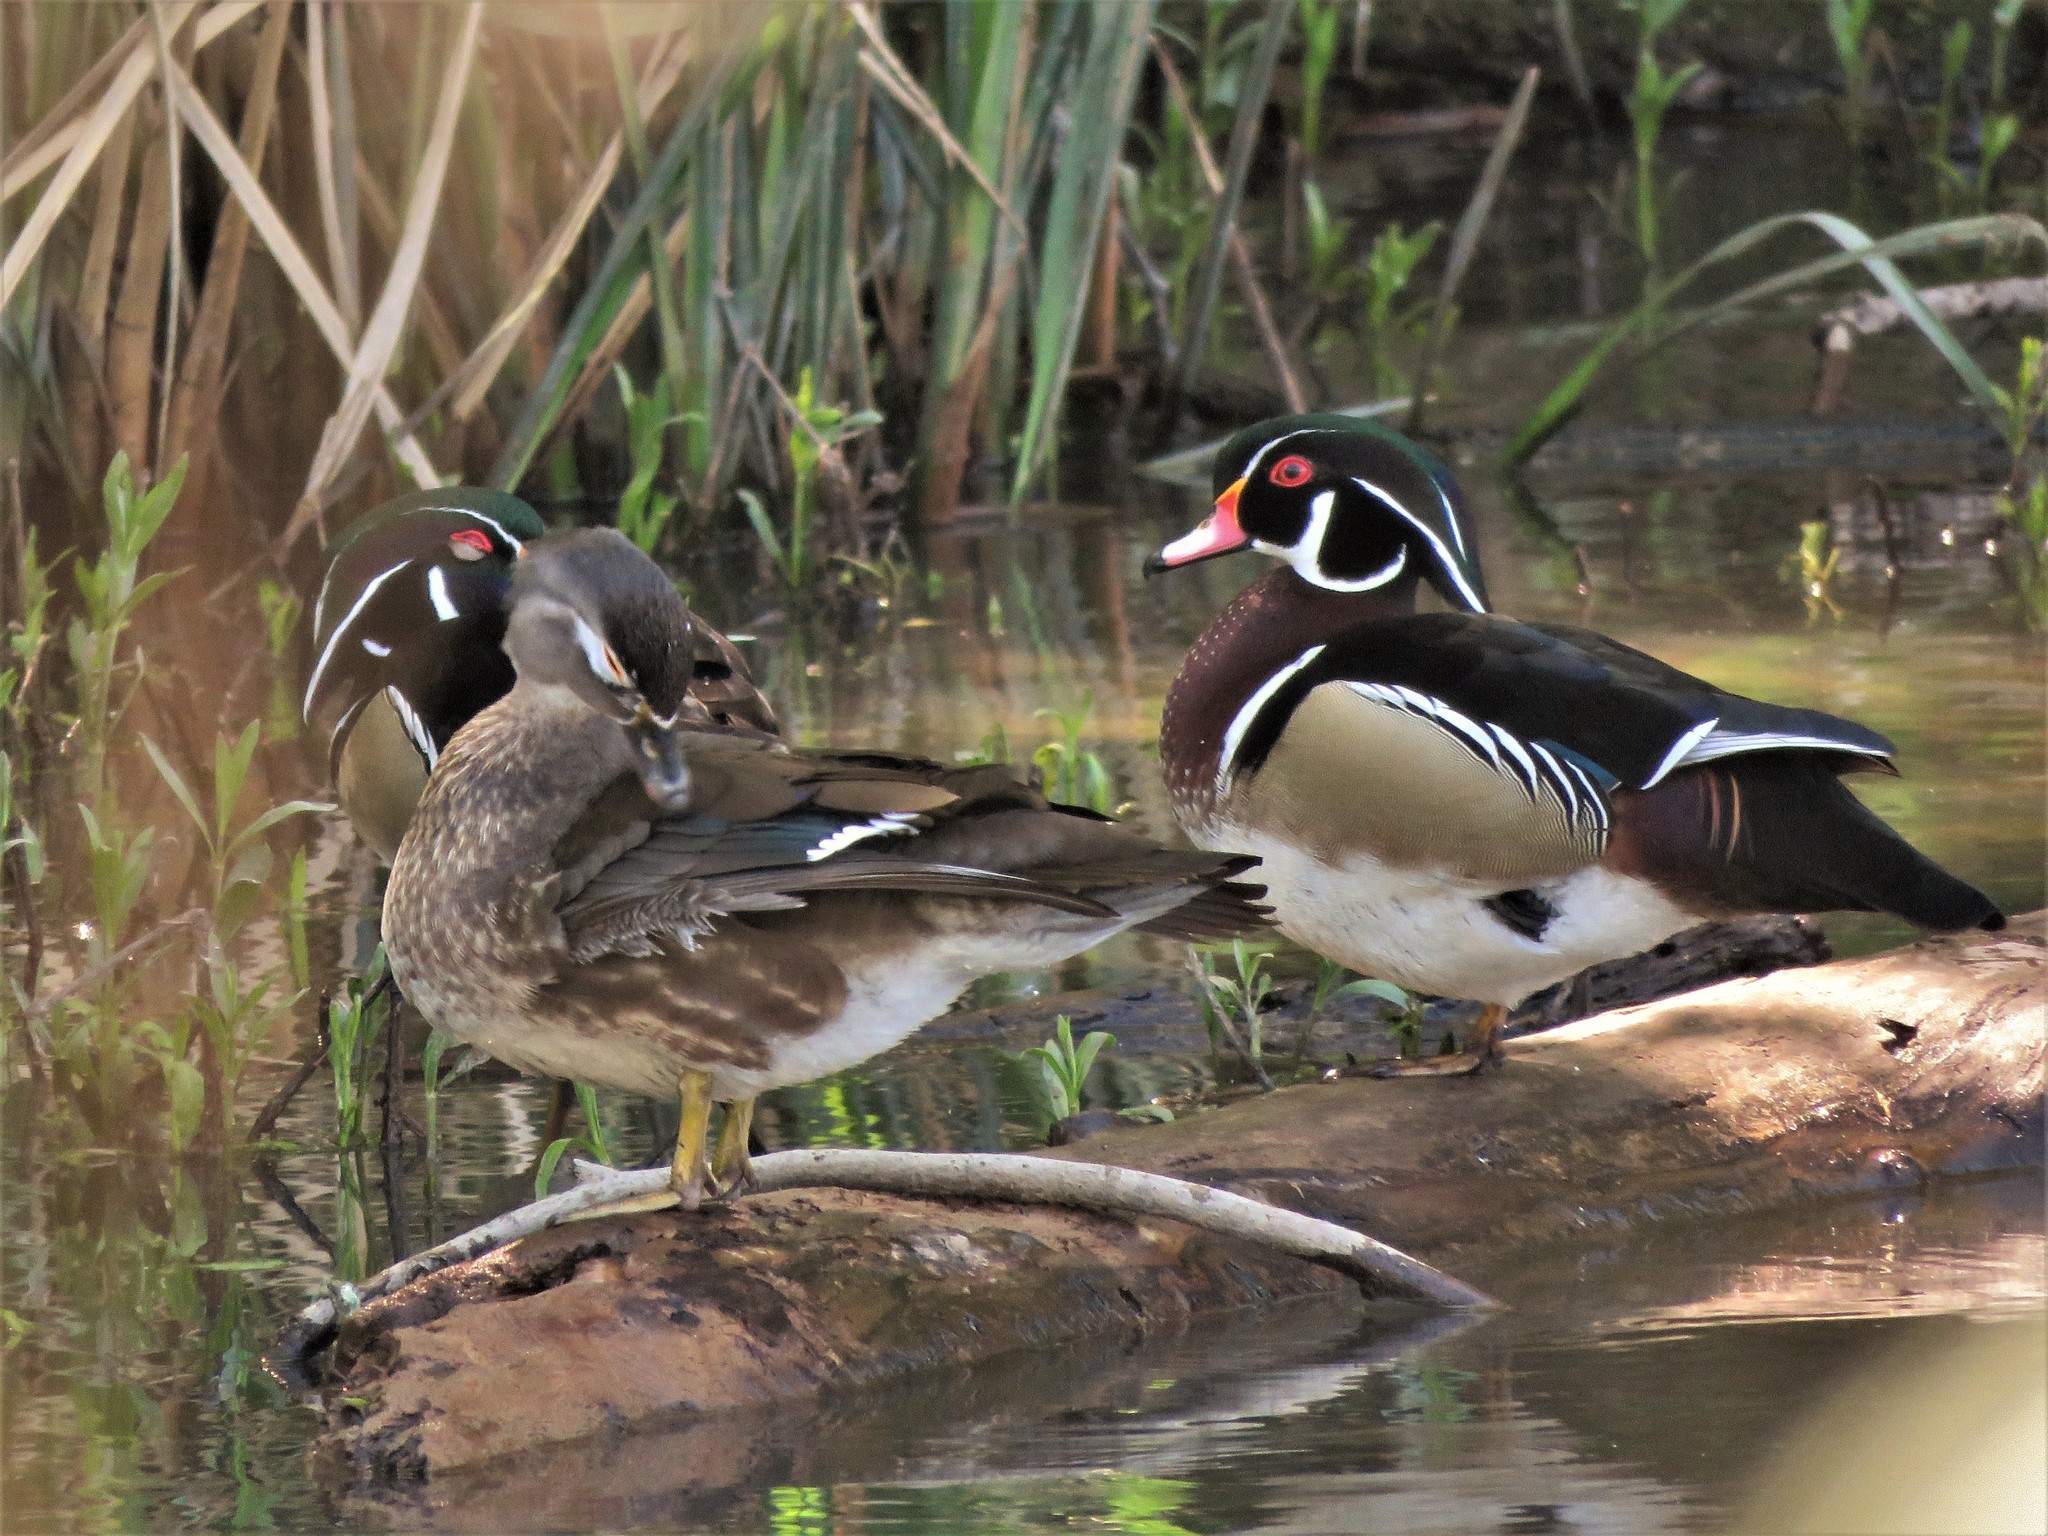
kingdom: Animalia
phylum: Chordata
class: Aves
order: Anseriformes
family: Anatidae
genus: Aix
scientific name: Aix sponsa
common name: Wood duck
